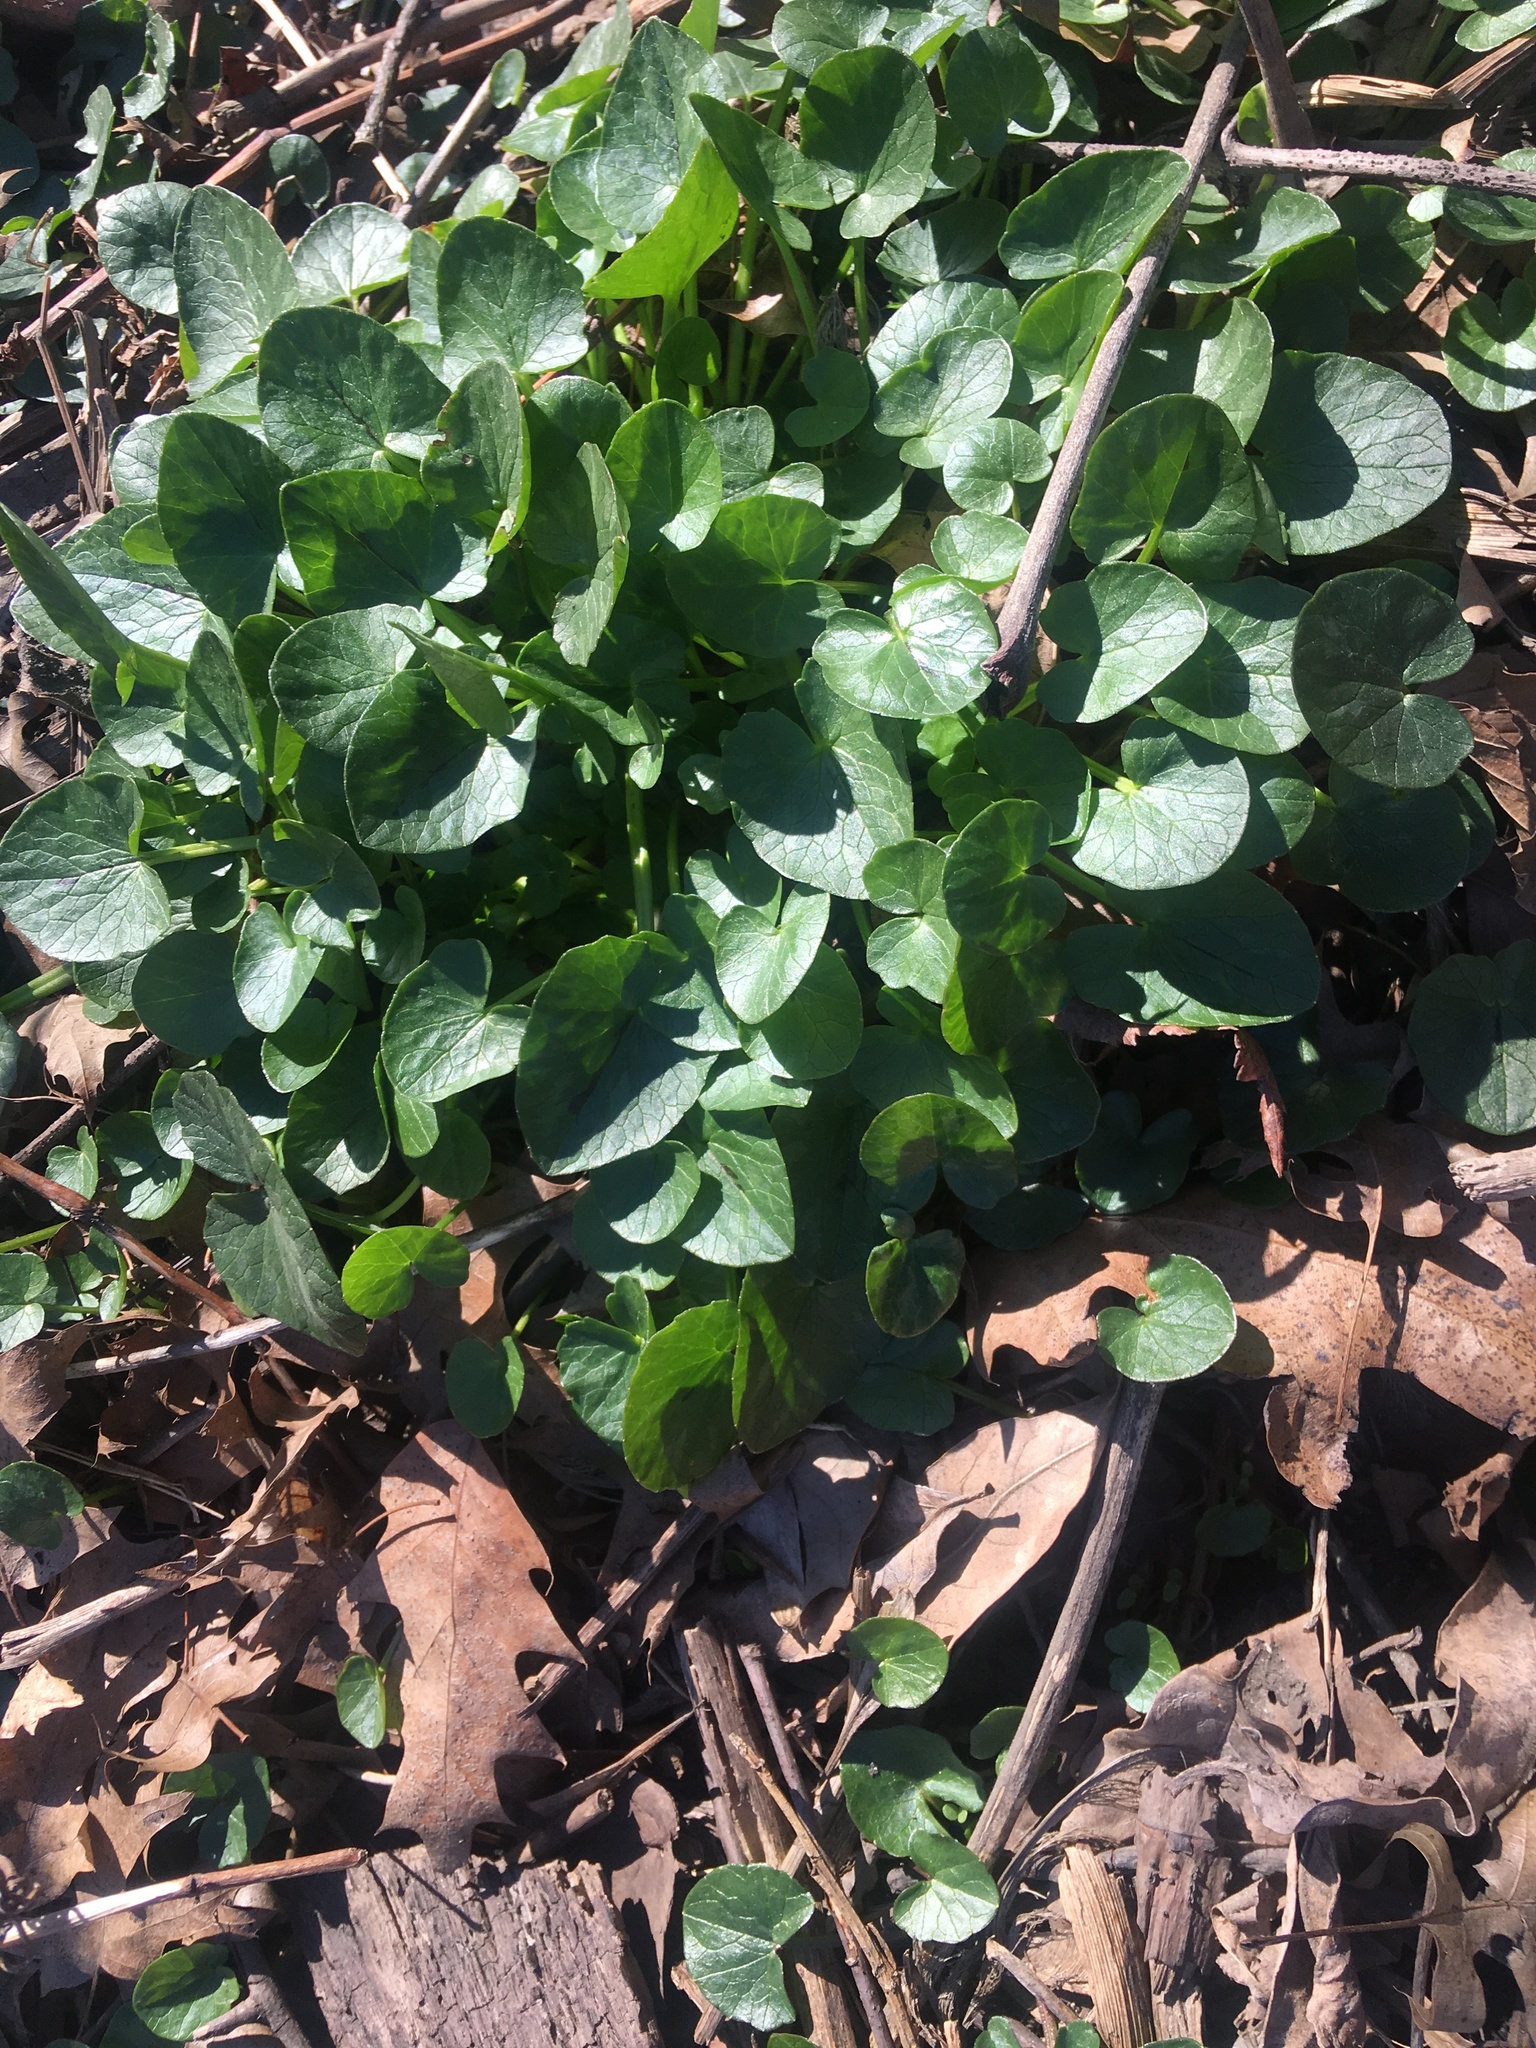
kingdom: Plantae
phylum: Tracheophyta
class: Magnoliopsida
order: Ranunculales
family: Ranunculaceae
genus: Ficaria
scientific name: Ficaria verna
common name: Lesser celandine
